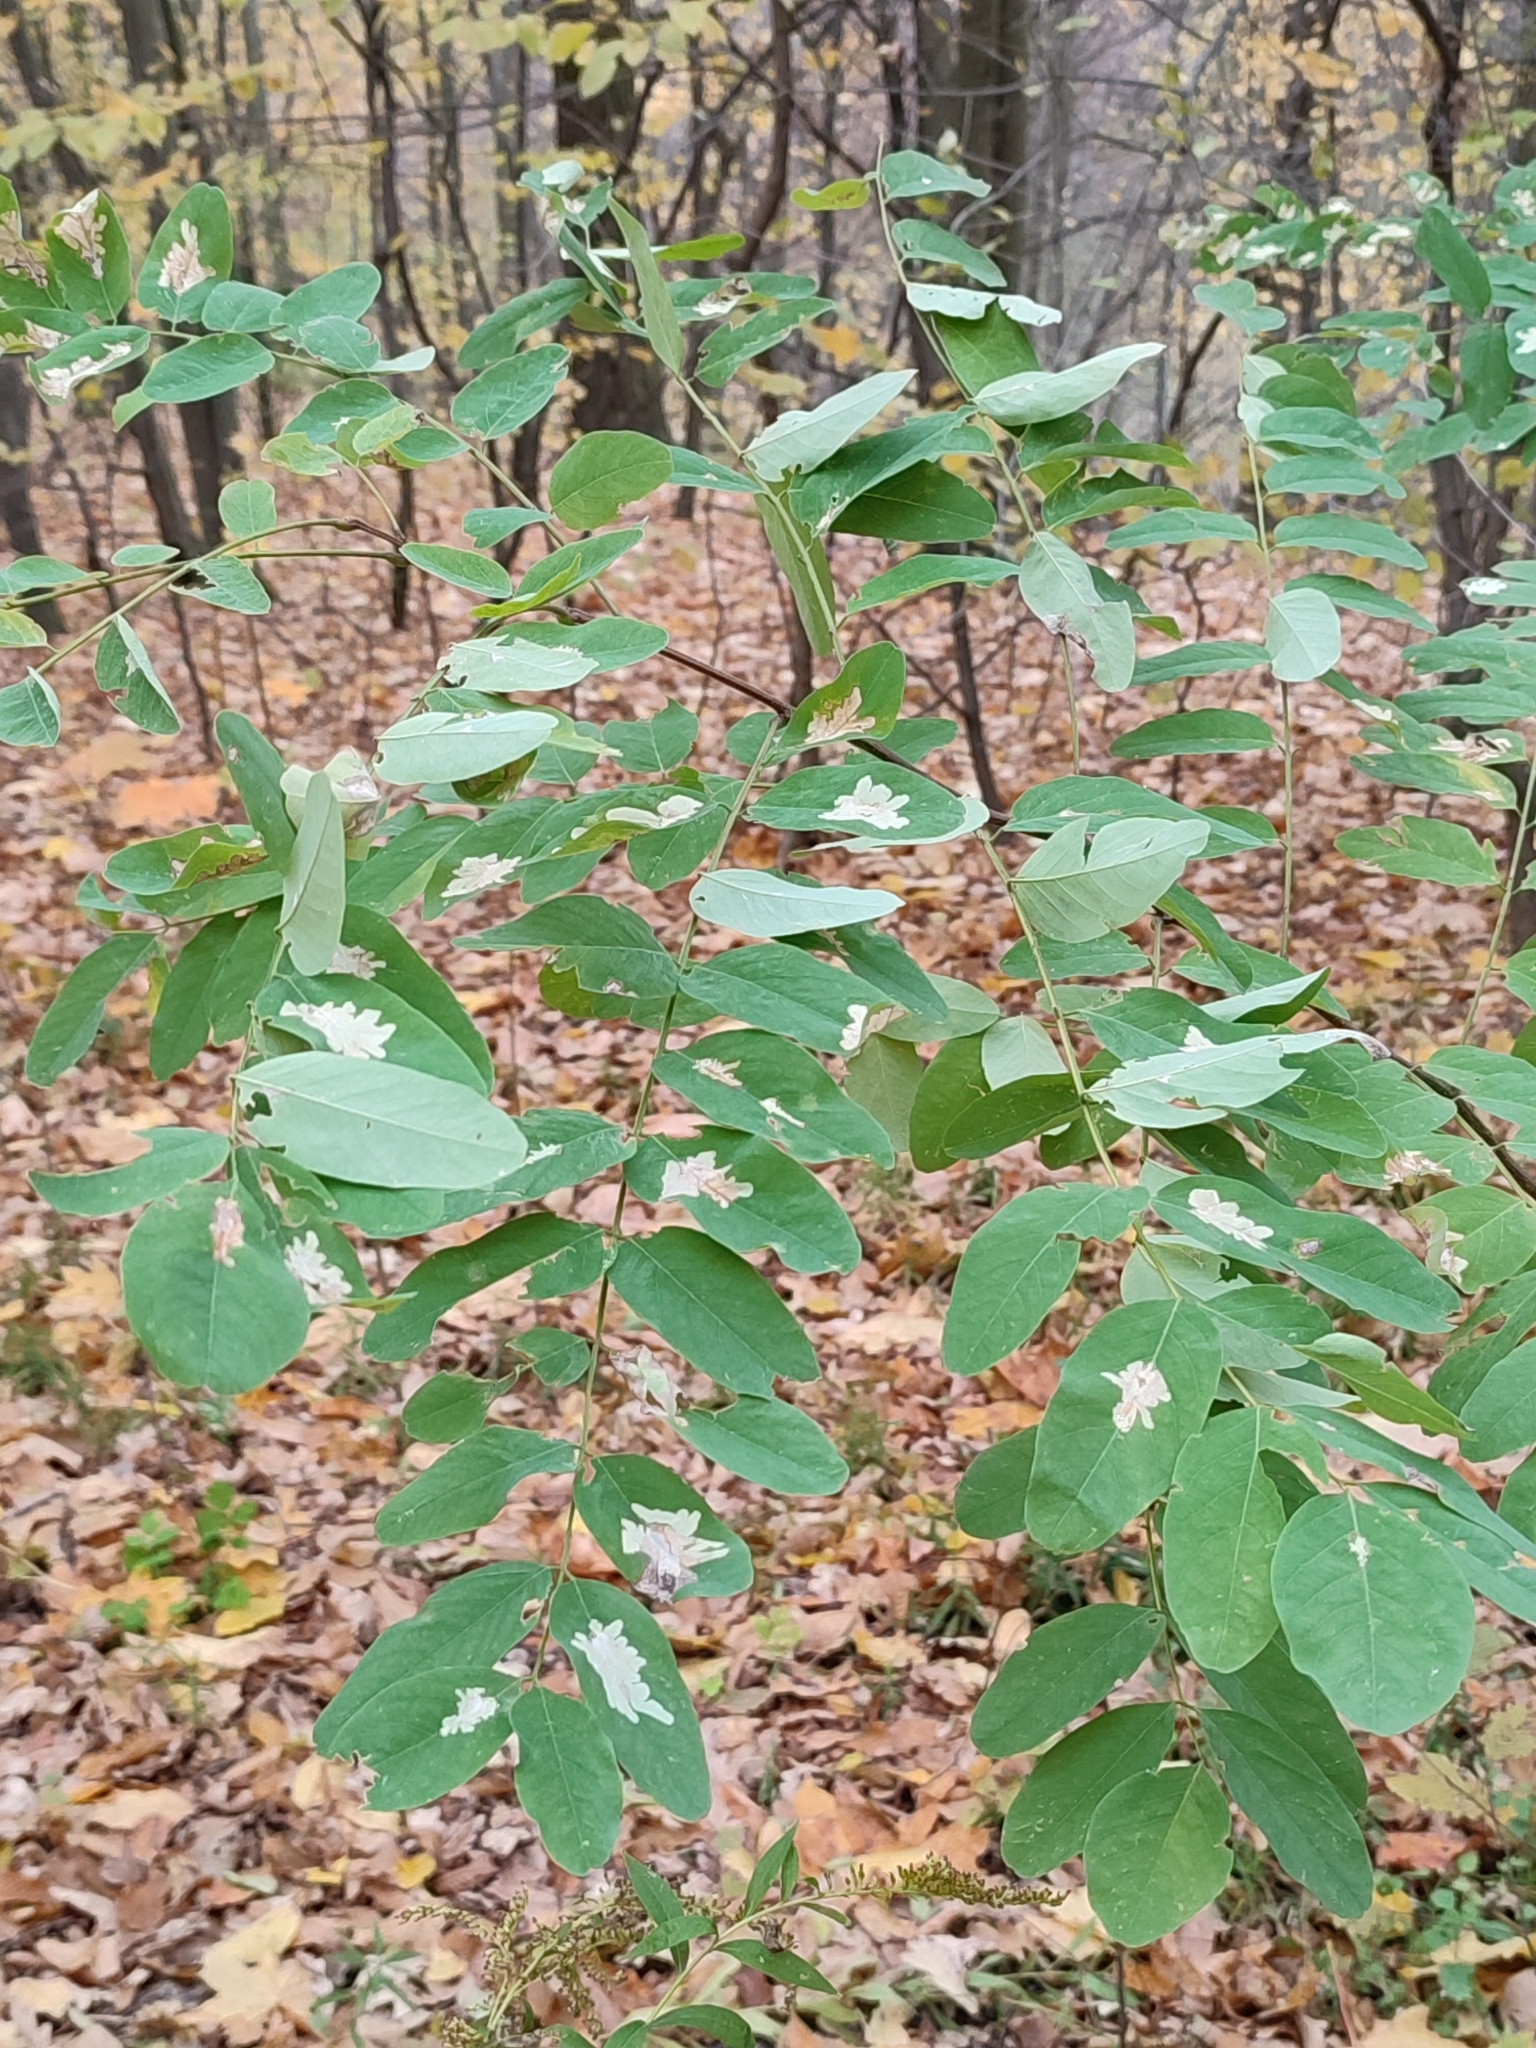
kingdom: Animalia
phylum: Arthropoda
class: Insecta
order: Lepidoptera
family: Gracillariidae
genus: Parectopa
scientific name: Parectopa robiniella
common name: Locust digitate leafminer
